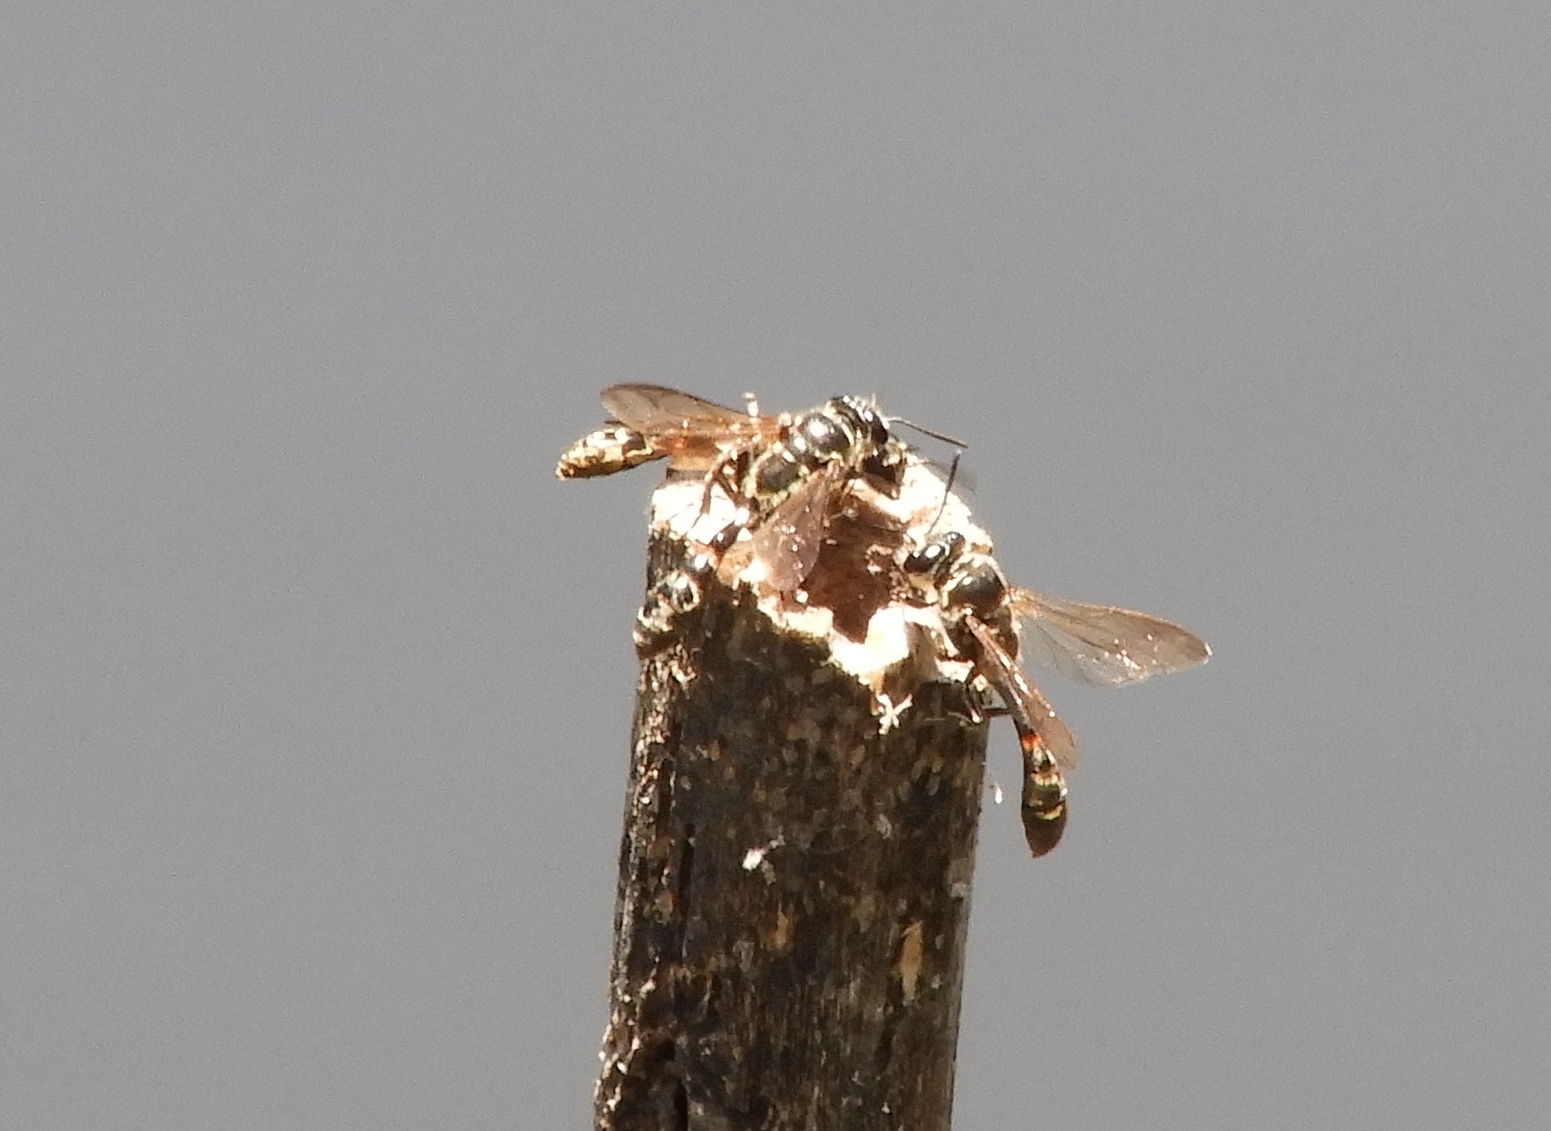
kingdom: Animalia
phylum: Arthropoda
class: Insecta
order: Hymenoptera
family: Crabronidae
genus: Trypoxylon
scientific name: Trypoxylon
